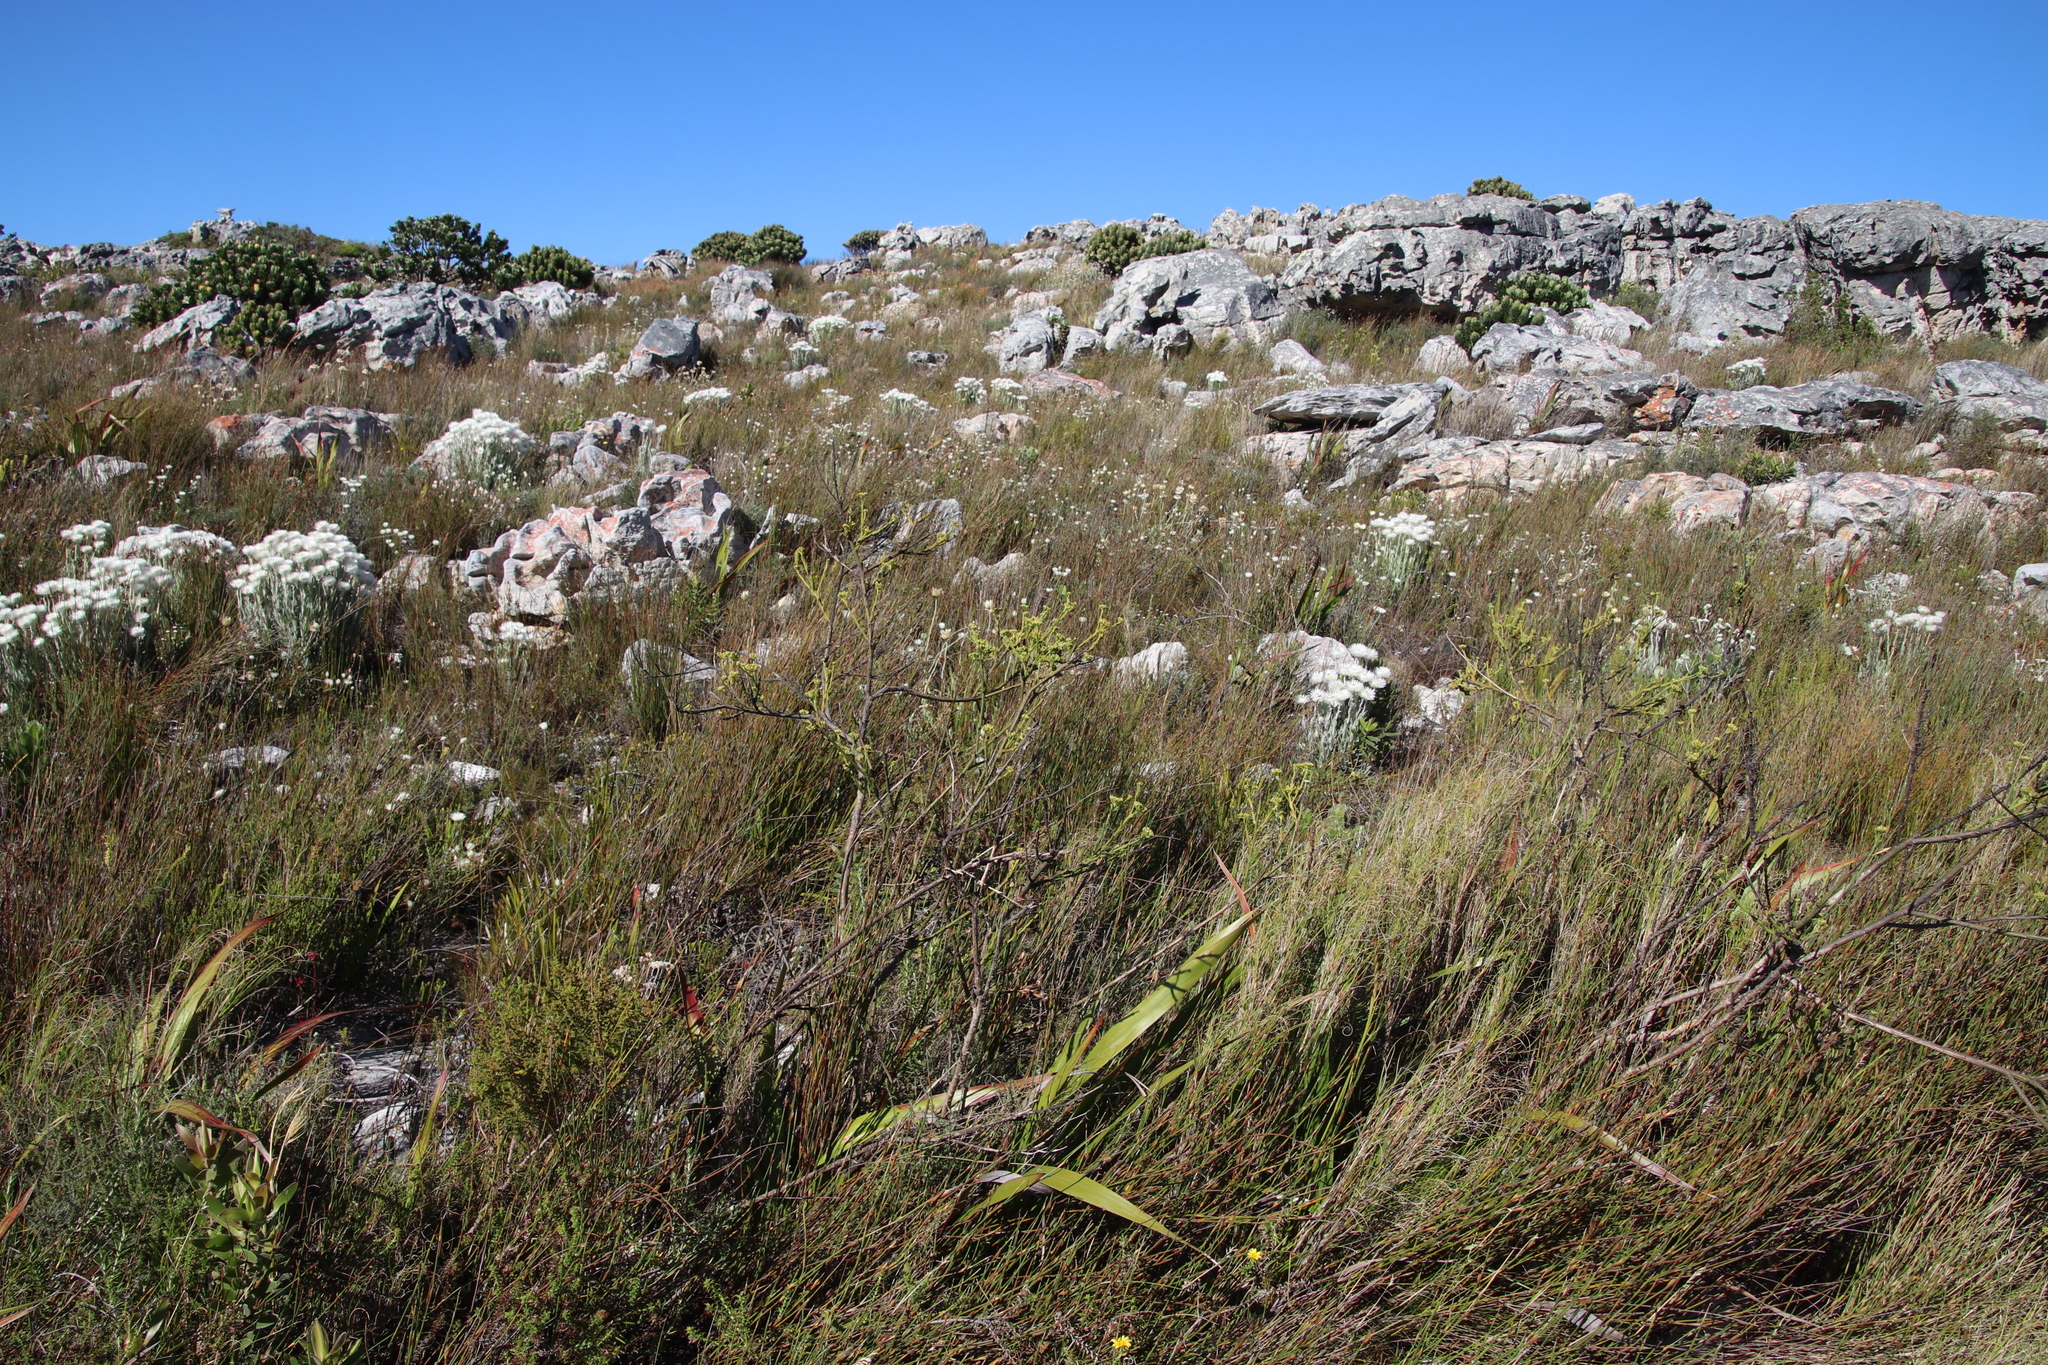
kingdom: Plantae
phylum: Tracheophyta
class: Magnoliopsida
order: Santalales
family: Thesiaceae
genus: Thesium
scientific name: Thesium strictum
